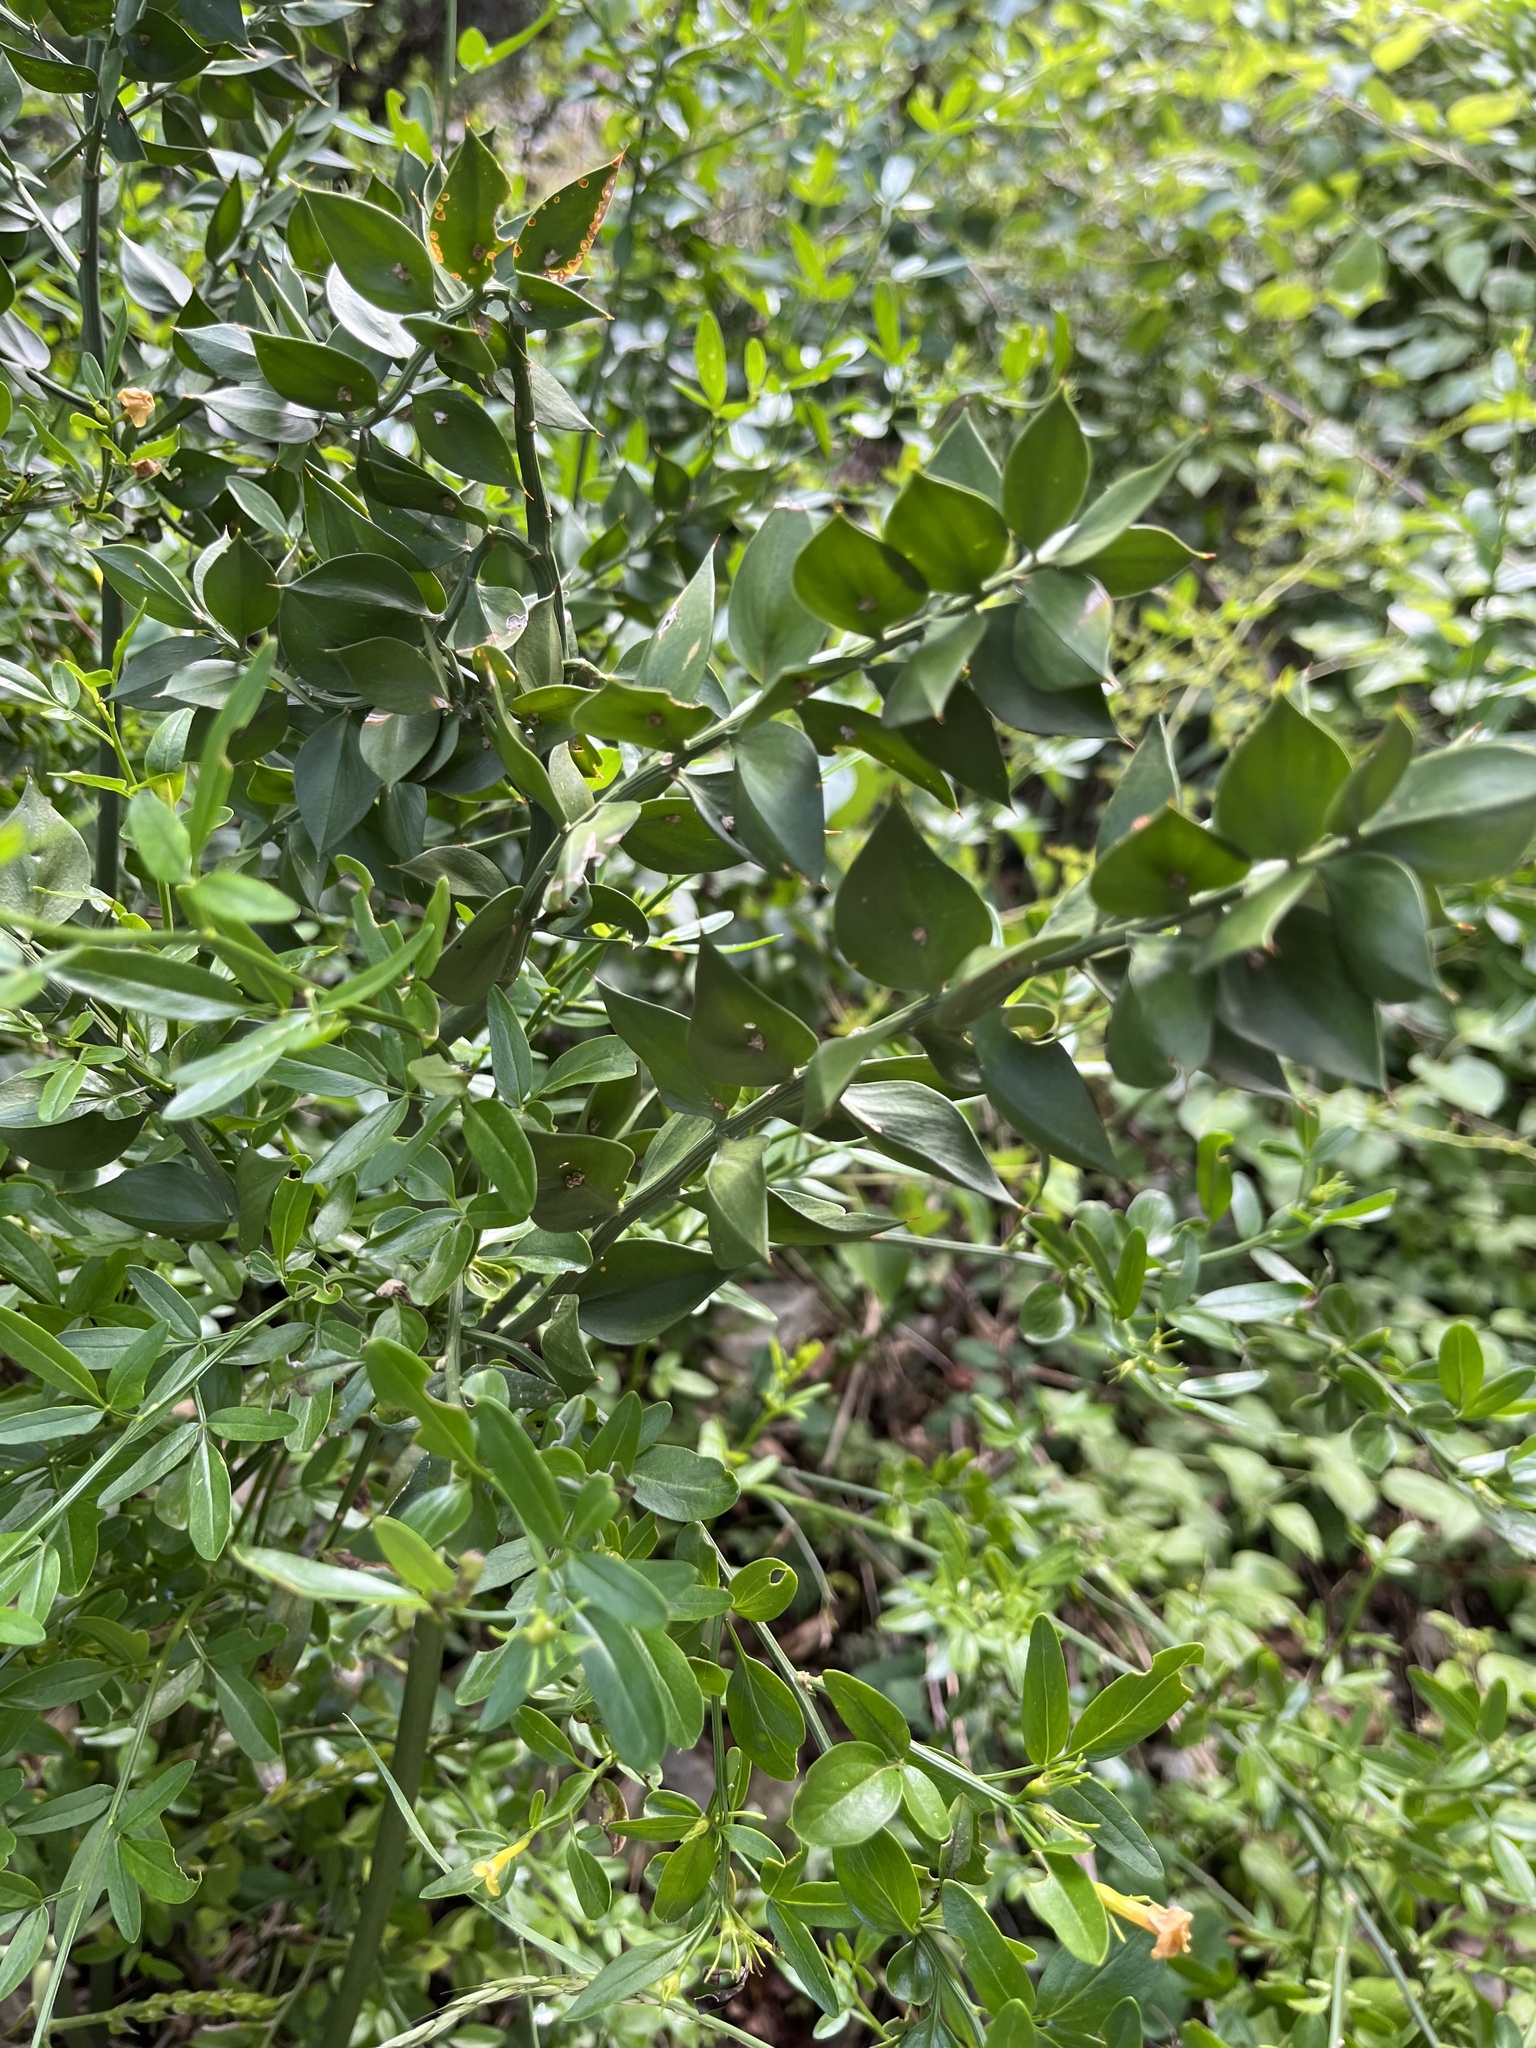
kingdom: Plantae
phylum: Tracheophyta
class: Liliopsida
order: Asparagales
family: Asparagaceae
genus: Ruscus
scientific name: Ruscus aculeatus
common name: Butcher's-broom
